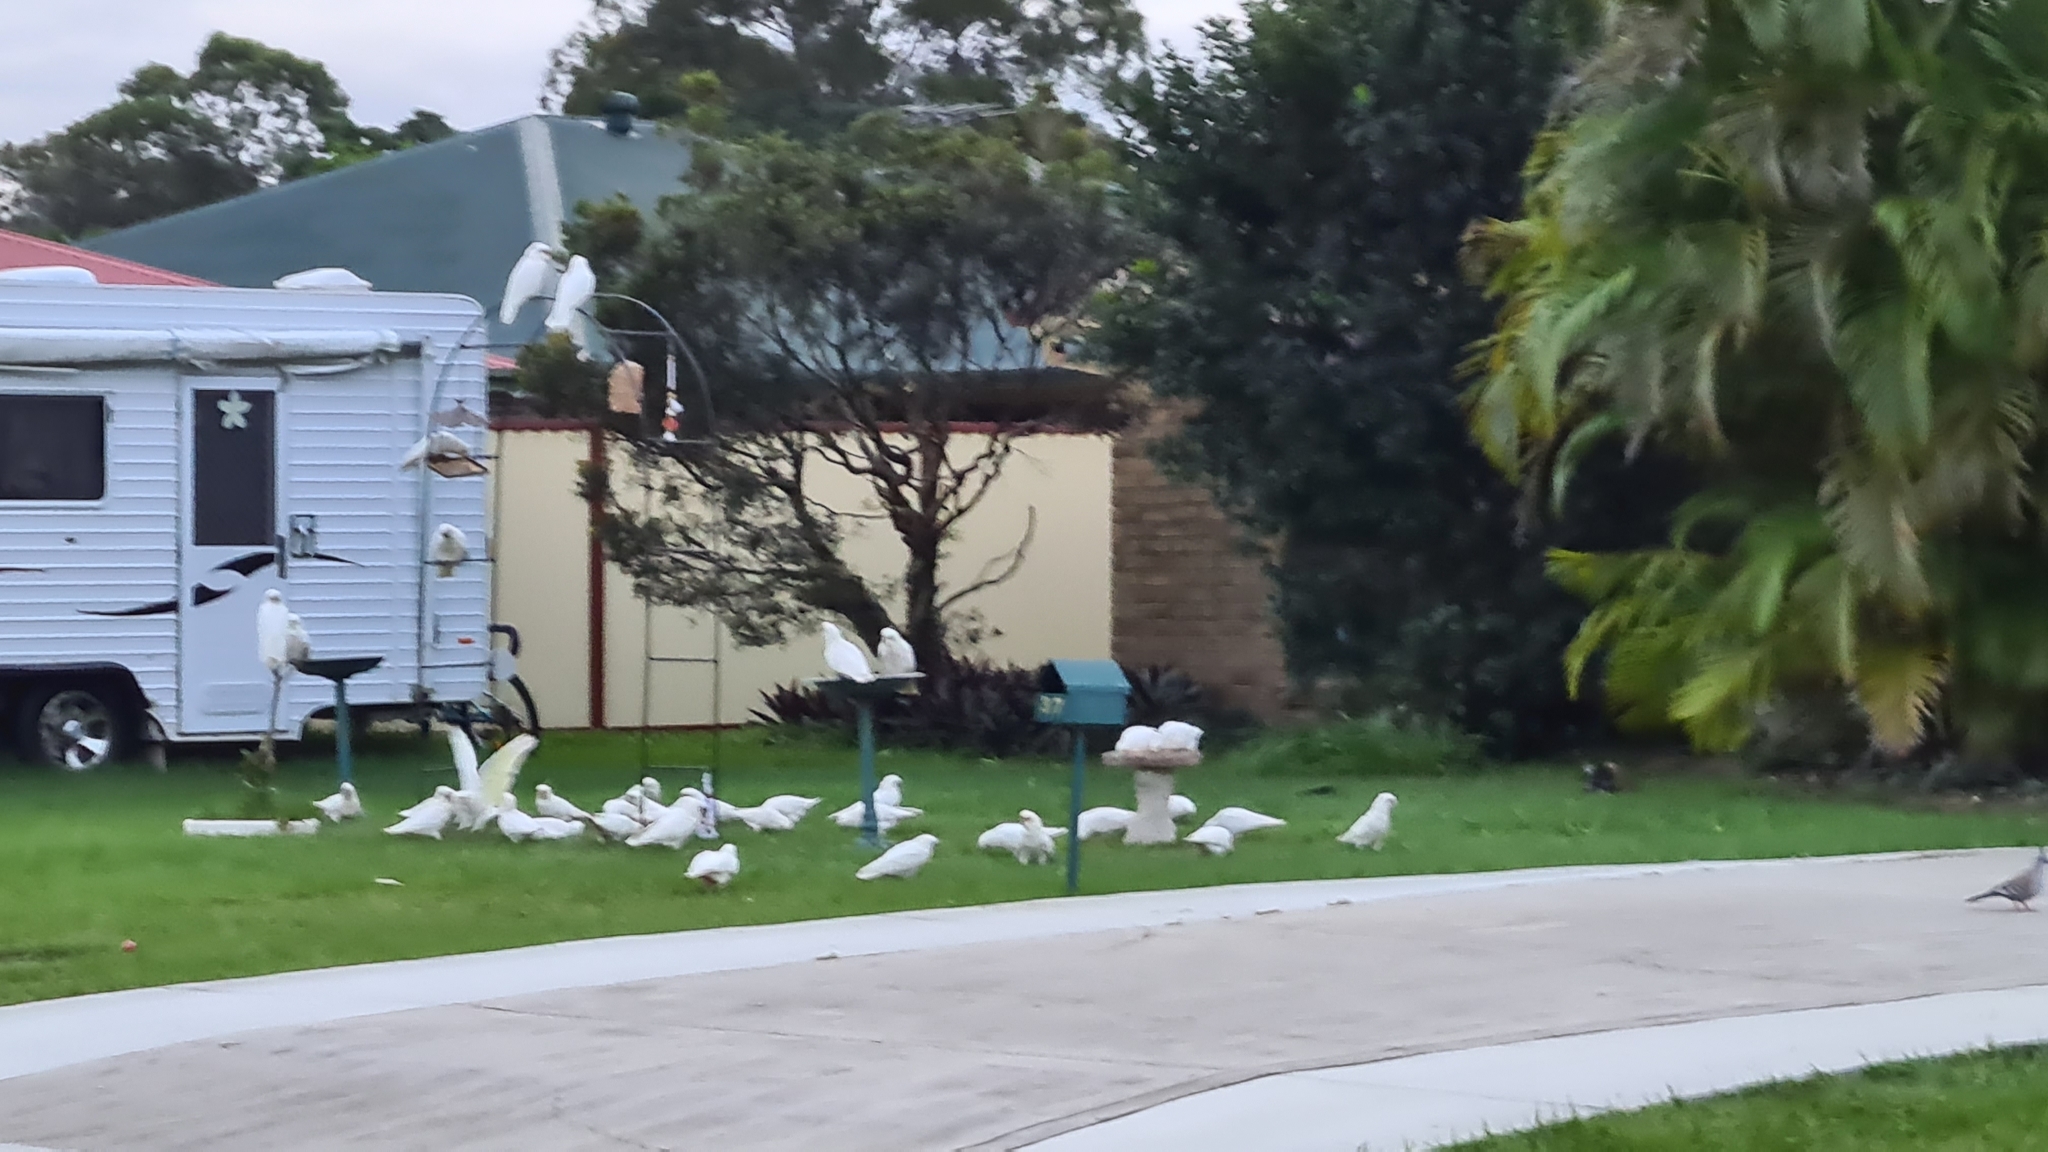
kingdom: Animalia
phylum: Chordata
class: Aves
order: Psittaciformes
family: Psittacidae
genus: Cacatua
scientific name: Cacatua sanguinea
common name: Little corella
